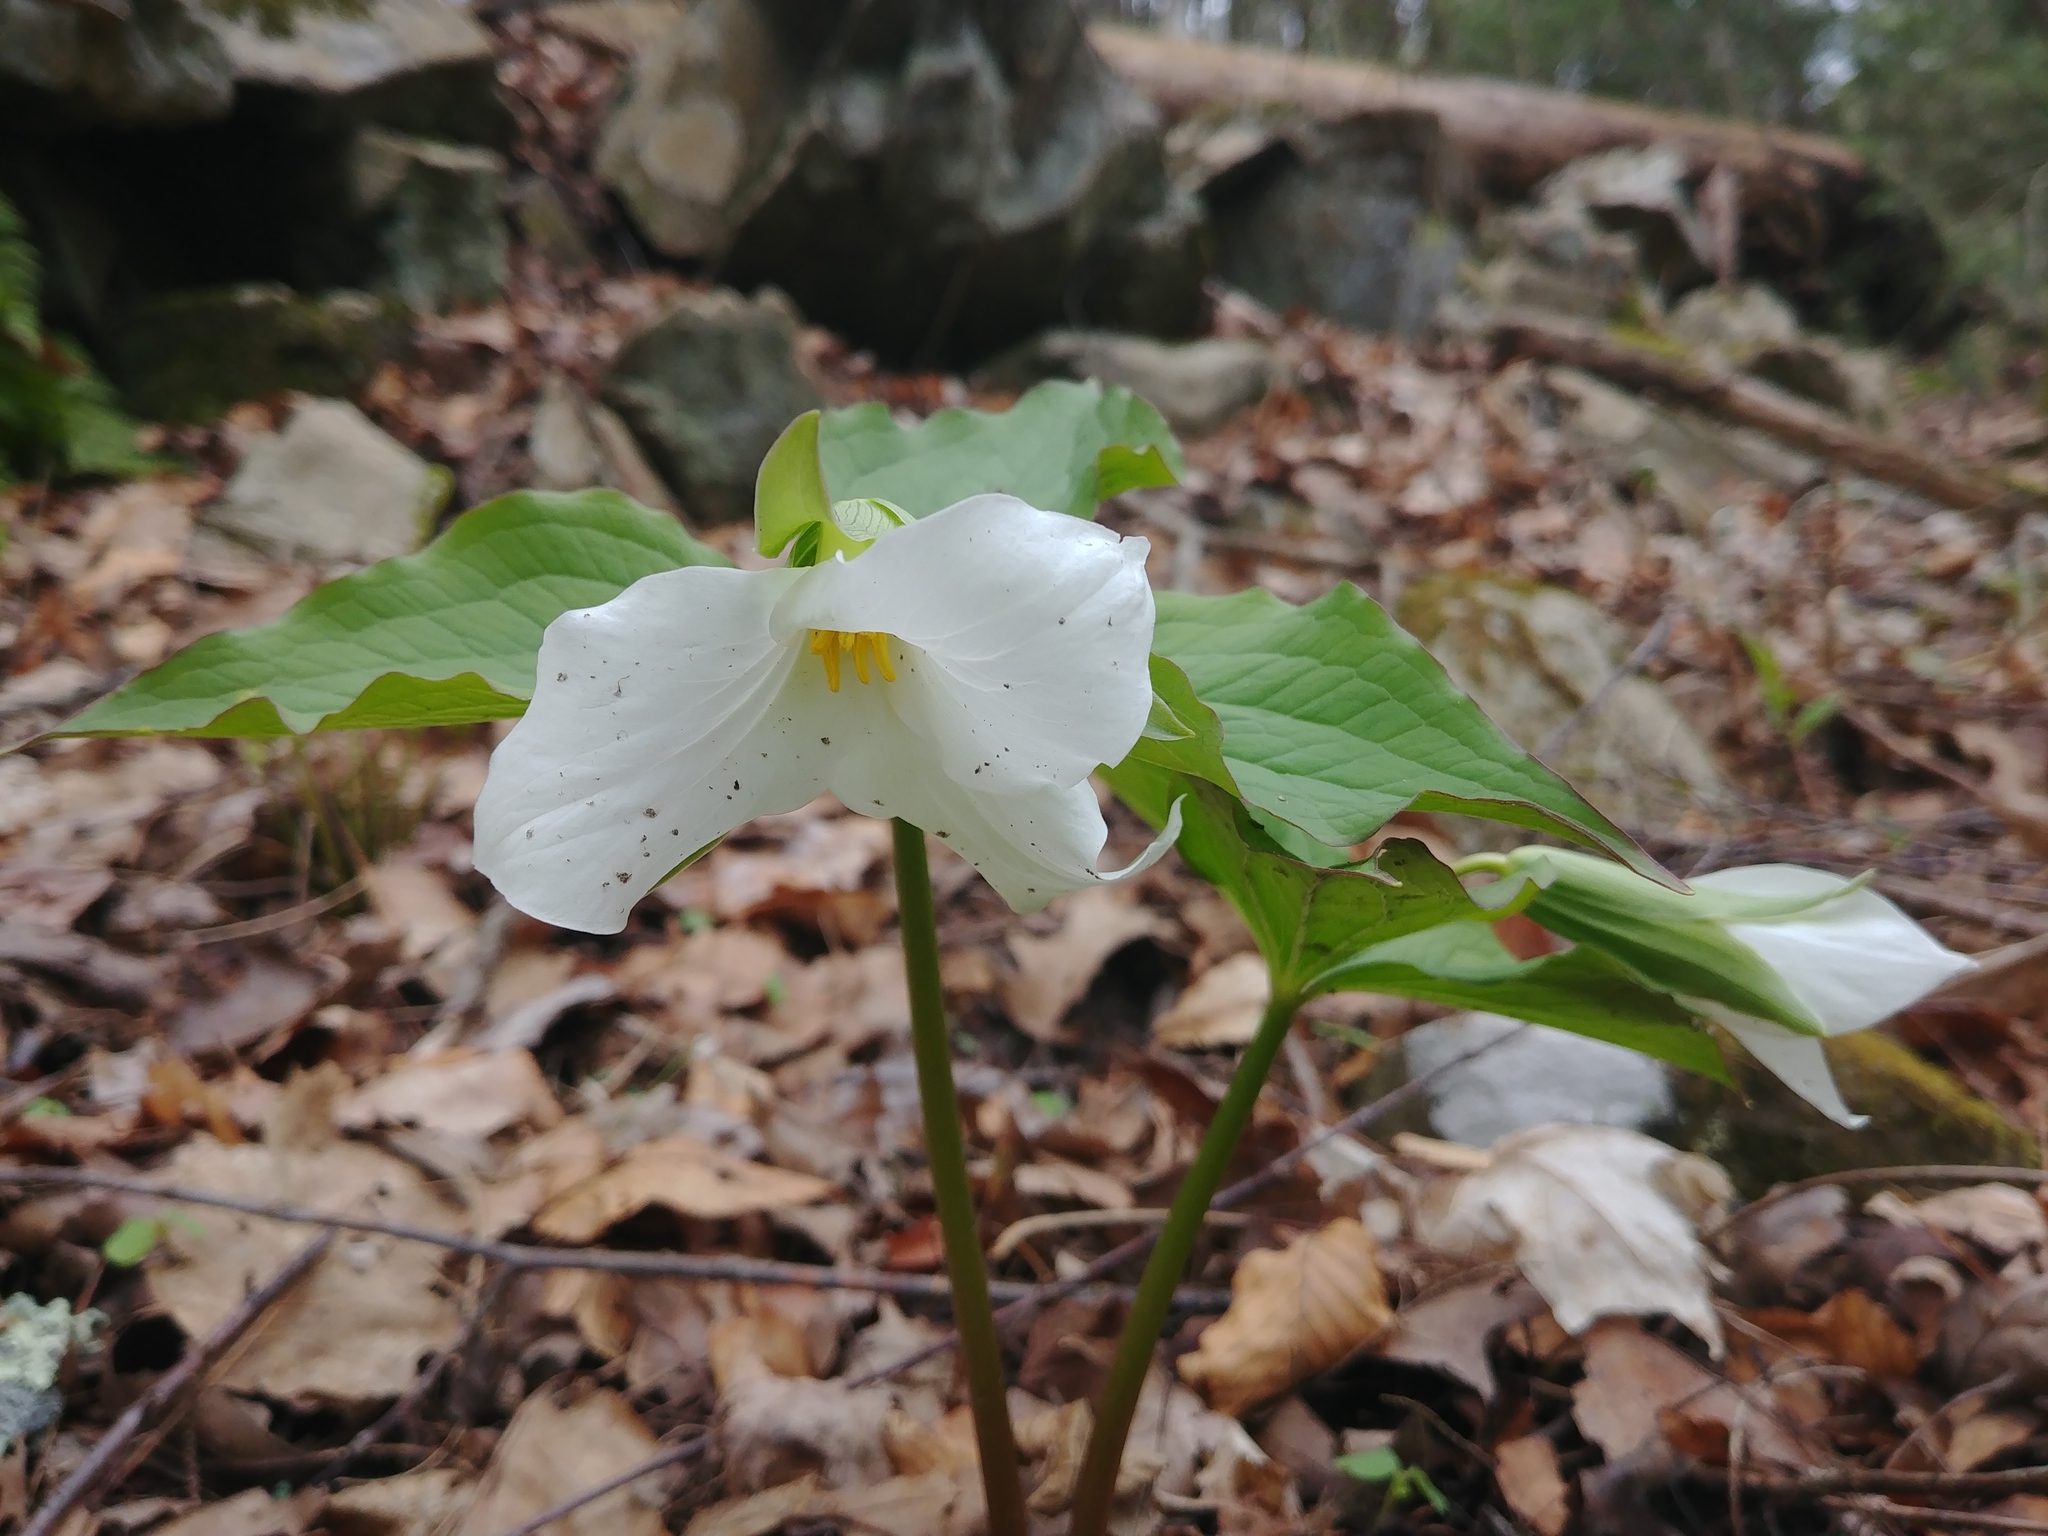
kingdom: Plantae
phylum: Tracheophyta
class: Liliopsida
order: Liliales
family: Melanthiaceae
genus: Trillium
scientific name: Trillium grandiflorum
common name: Great white trillium
